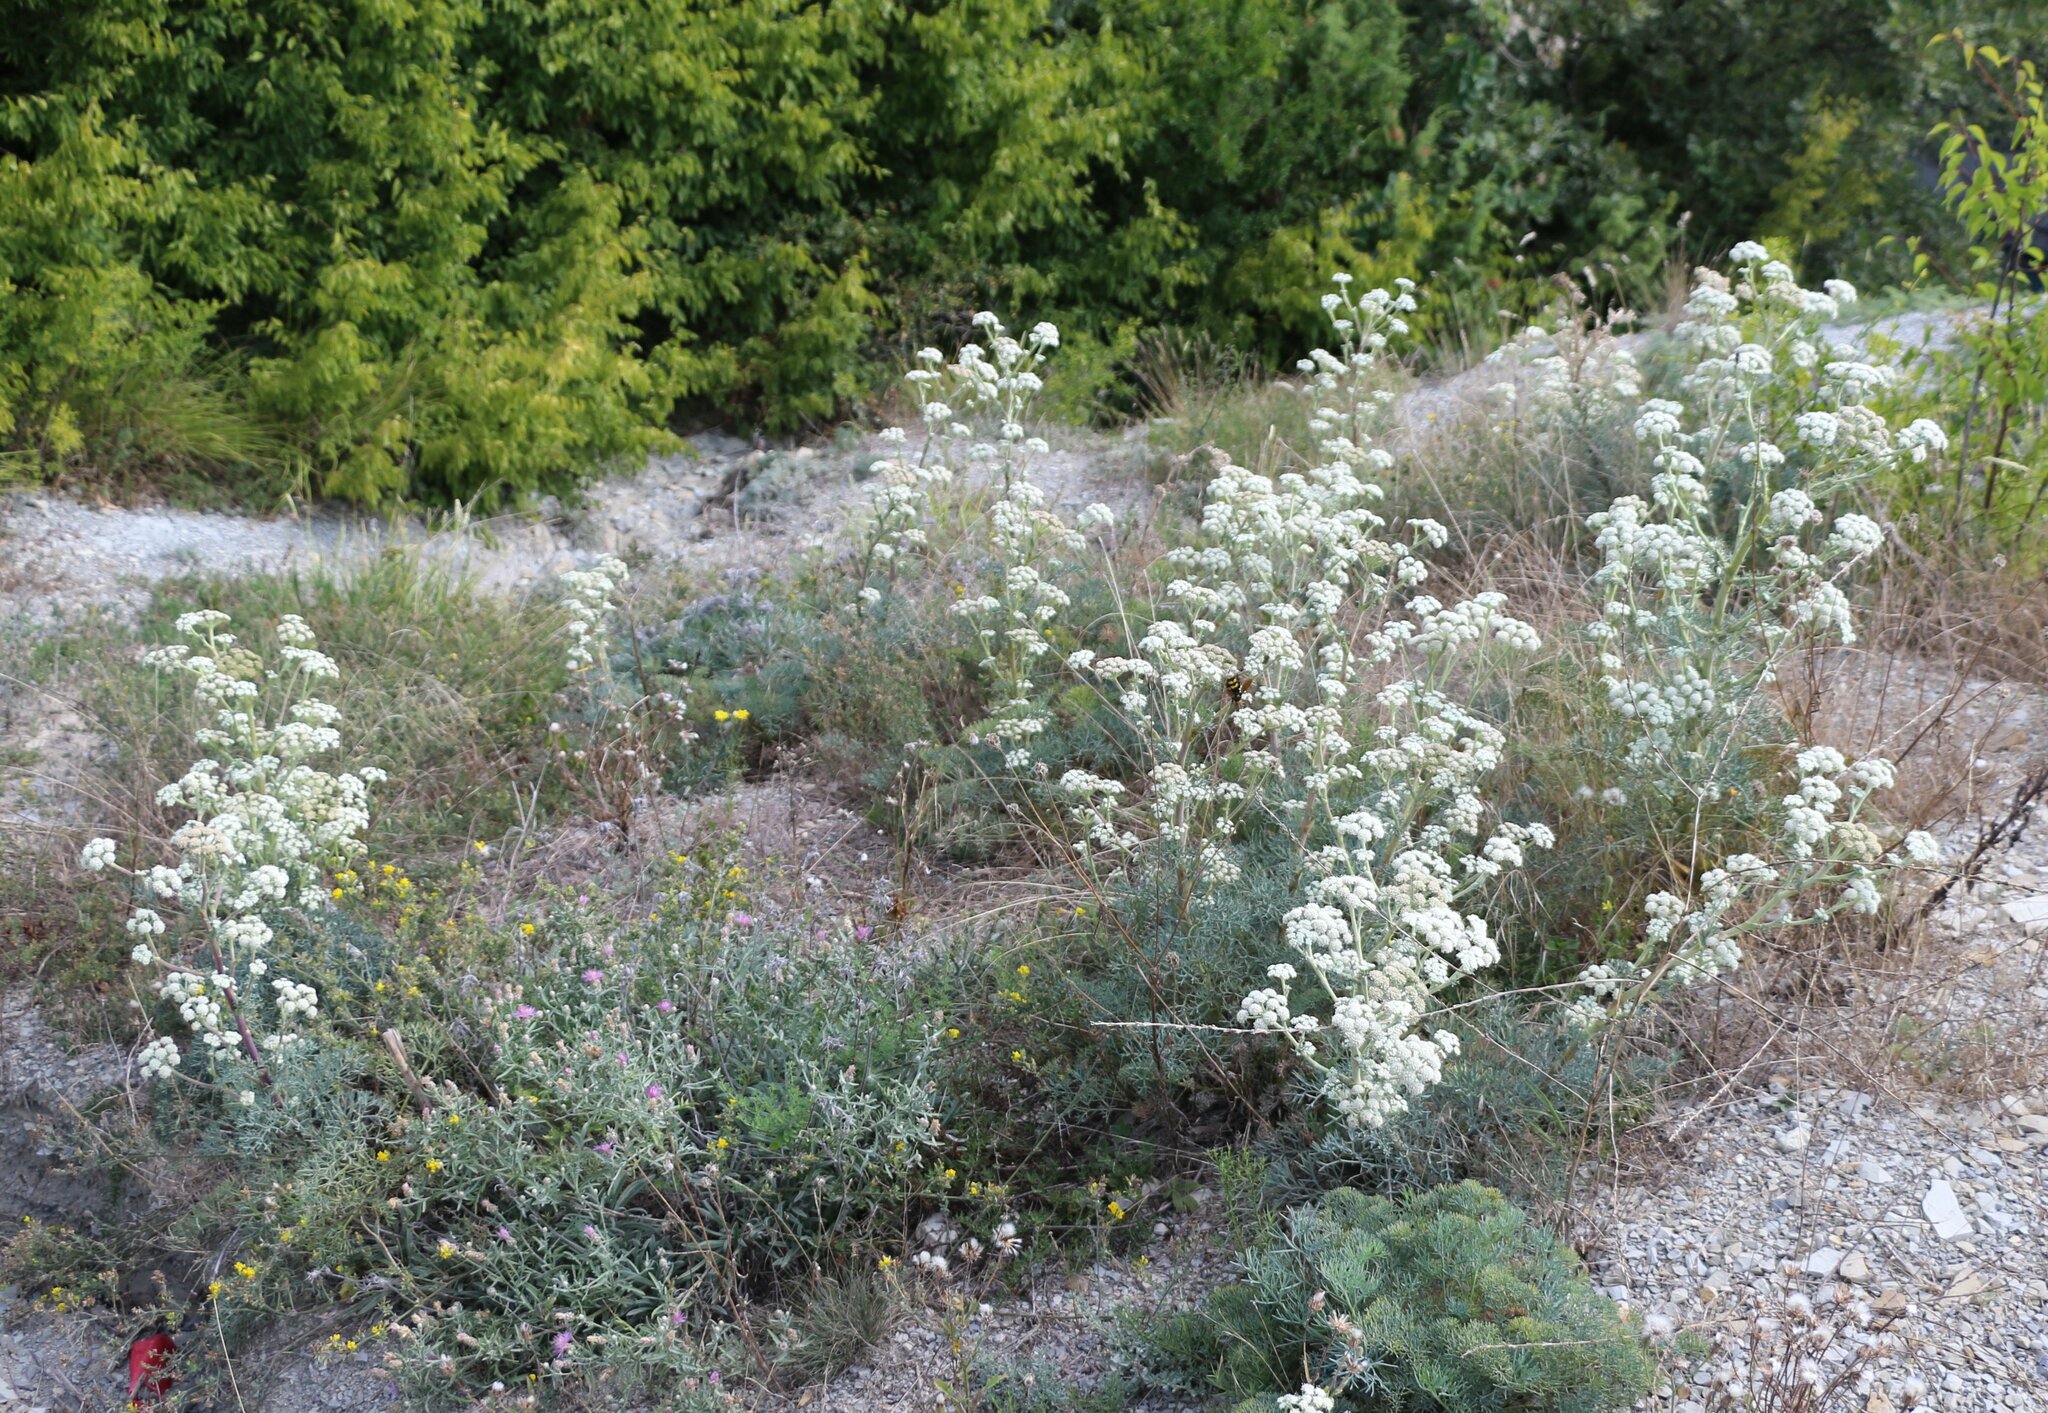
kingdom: Plantae
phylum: Tracheophyta
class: Magnoliopsida
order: Apiales
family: Apiaceae
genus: Seseli
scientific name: Seseli ponticum
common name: Pontic seseli
